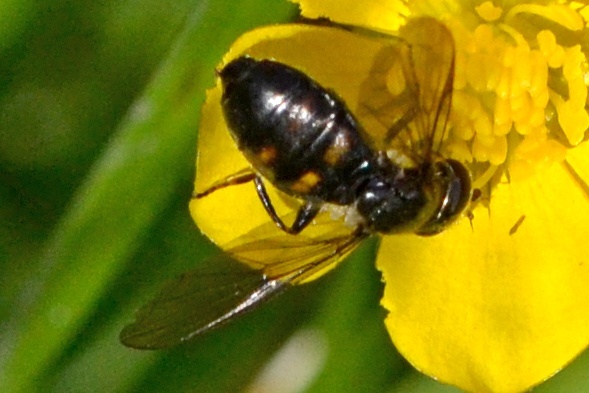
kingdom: Animalia
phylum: Arthropoda
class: Insecta
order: Diptera
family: Syrphidae
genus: Pipiza
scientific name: Pipiza quadrimaculata
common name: Four-spotted pipiza
